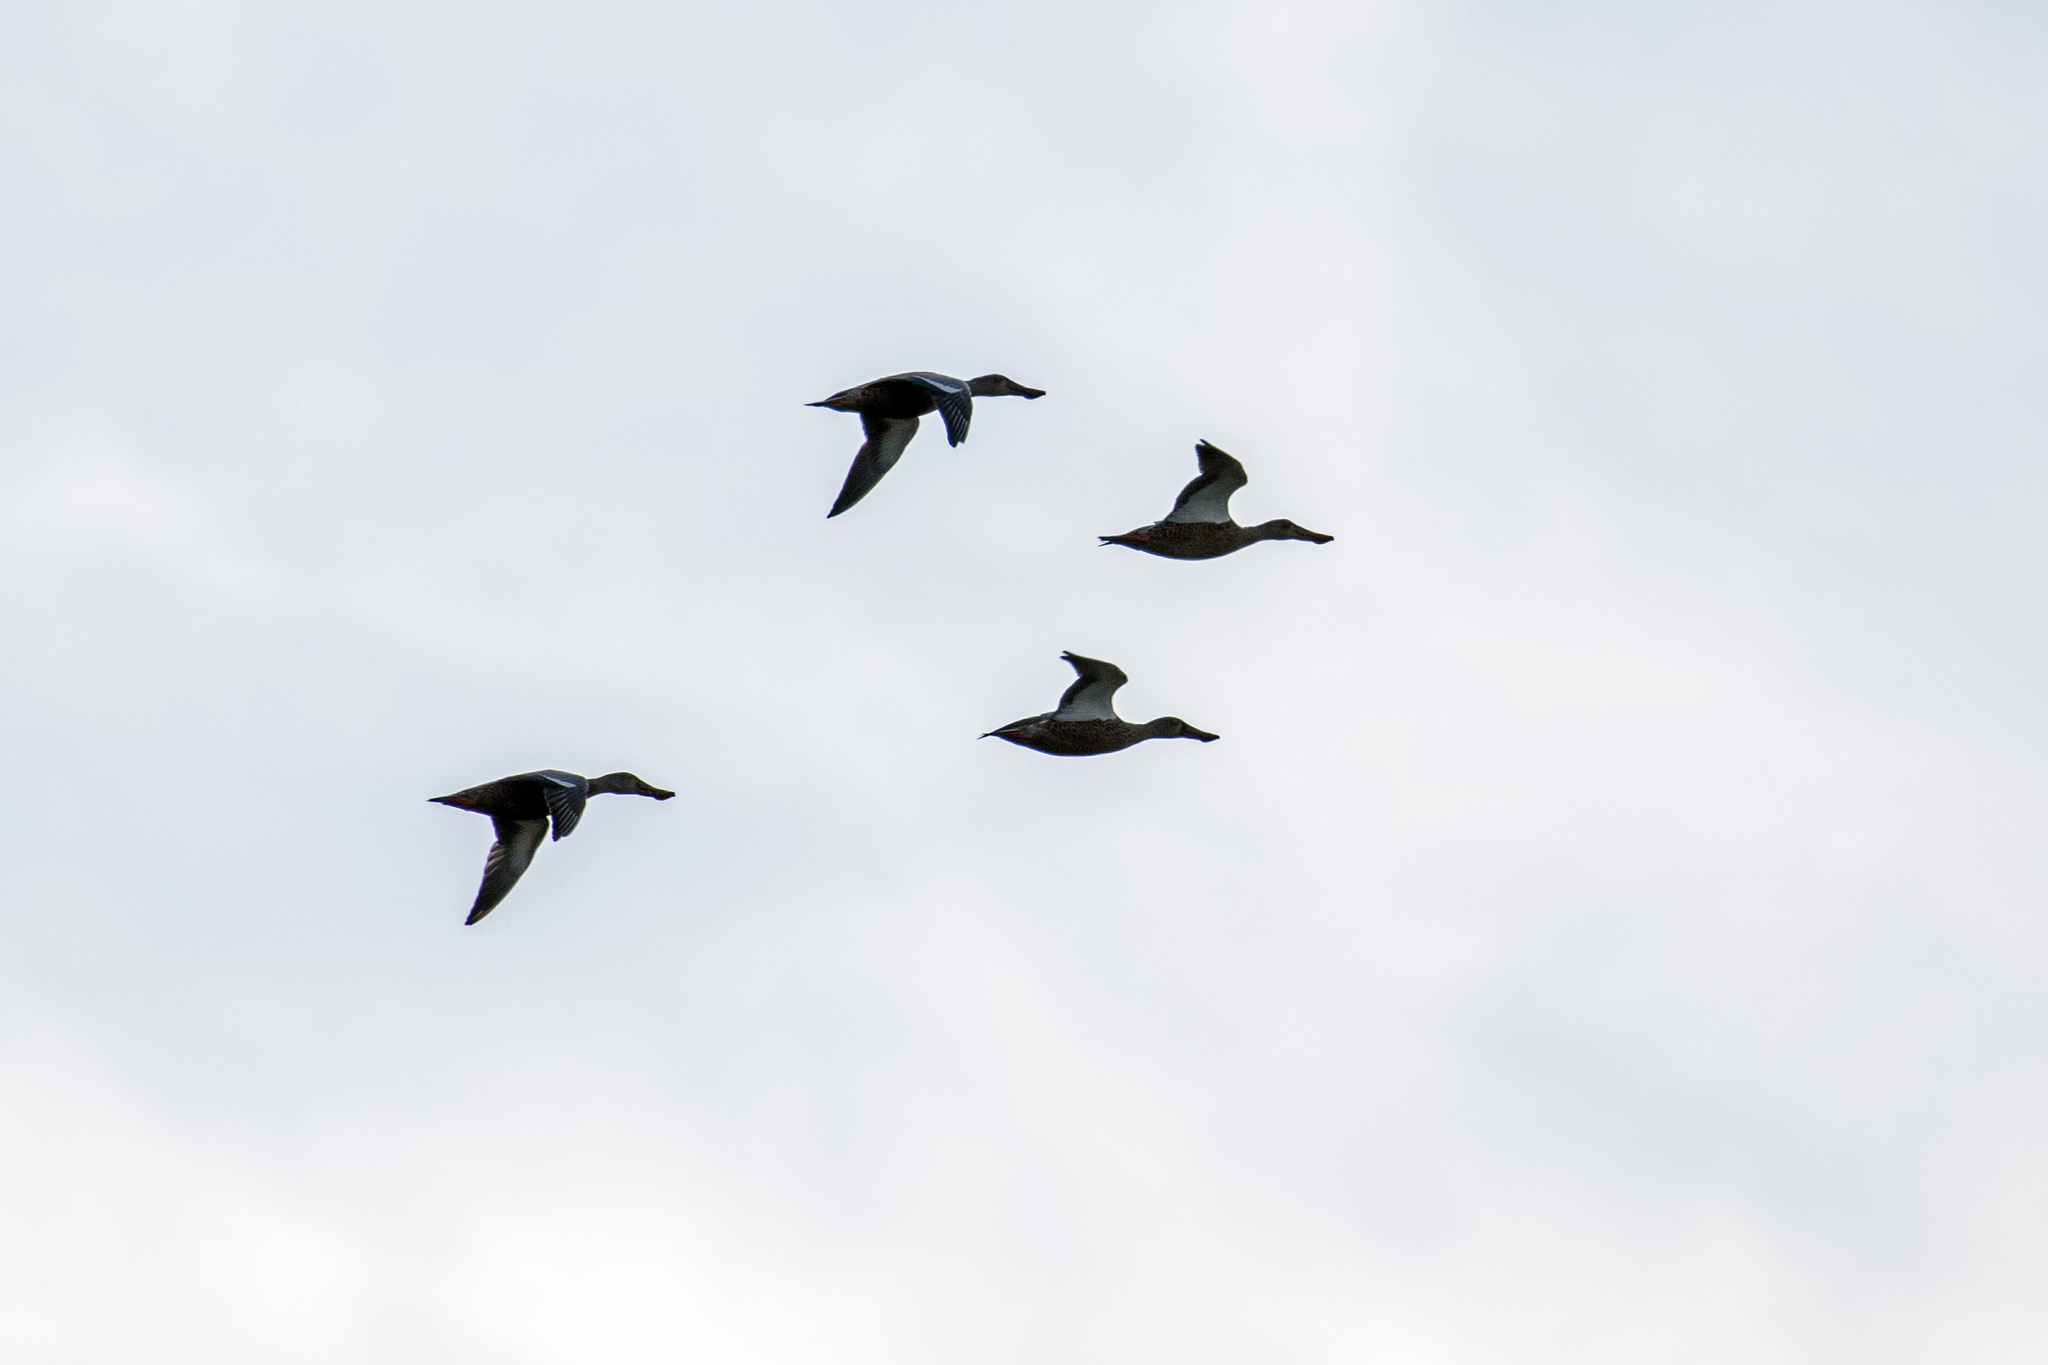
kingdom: Animalia
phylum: Chordata
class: Aves
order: Anseriformes
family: Anatidae
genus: Spatula
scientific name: Spatula clypeata
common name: Northern shoveler
